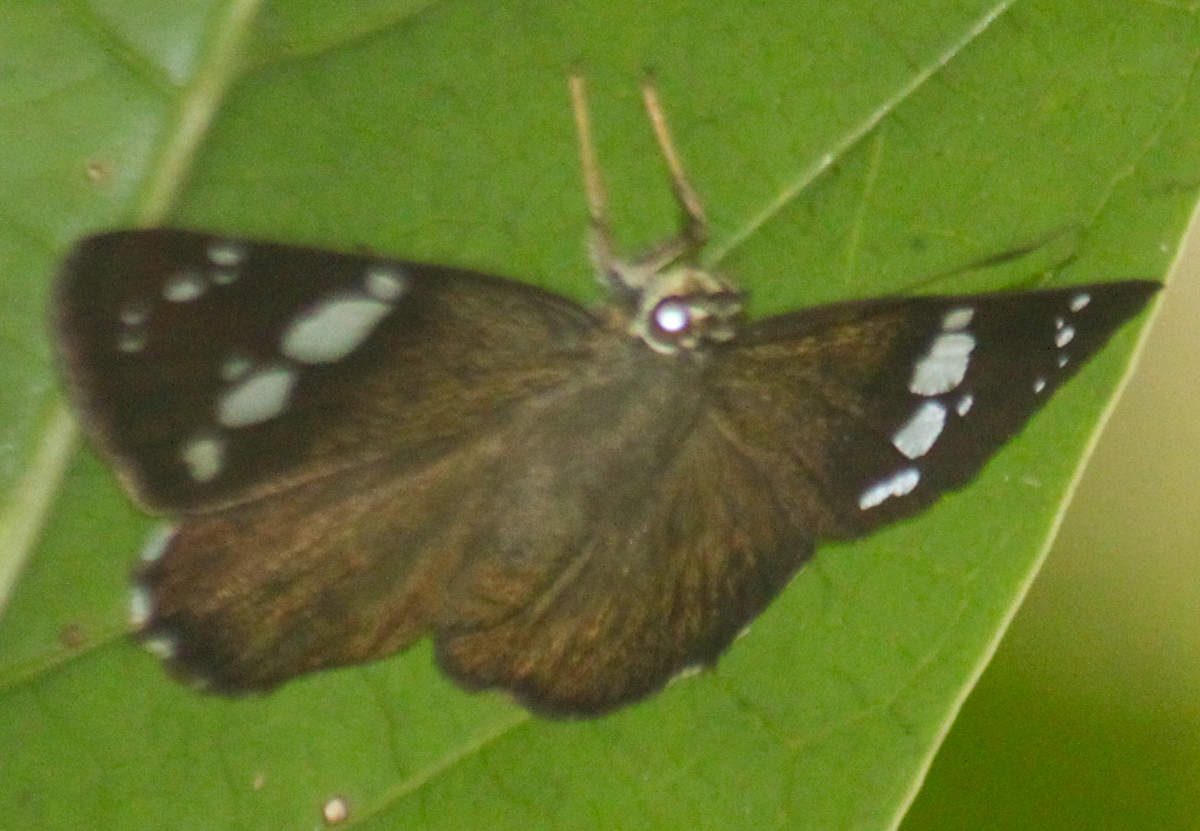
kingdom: Animalia
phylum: Arthropoda
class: Insecta
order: Lepidoptera
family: Hesperiidae
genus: Chamunda
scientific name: Chamunda chamunda
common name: Crescent spotted flat
